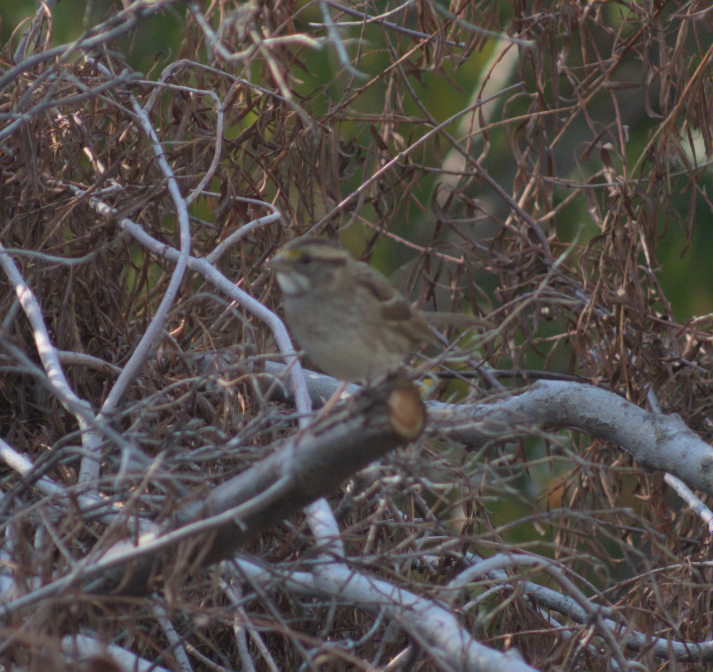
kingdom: Animalia
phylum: Chordata
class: Aves
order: Passeriformes
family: Passerellidae
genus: Zonotrichia
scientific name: Zonotrichia albicollis
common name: White-throated sparrow
